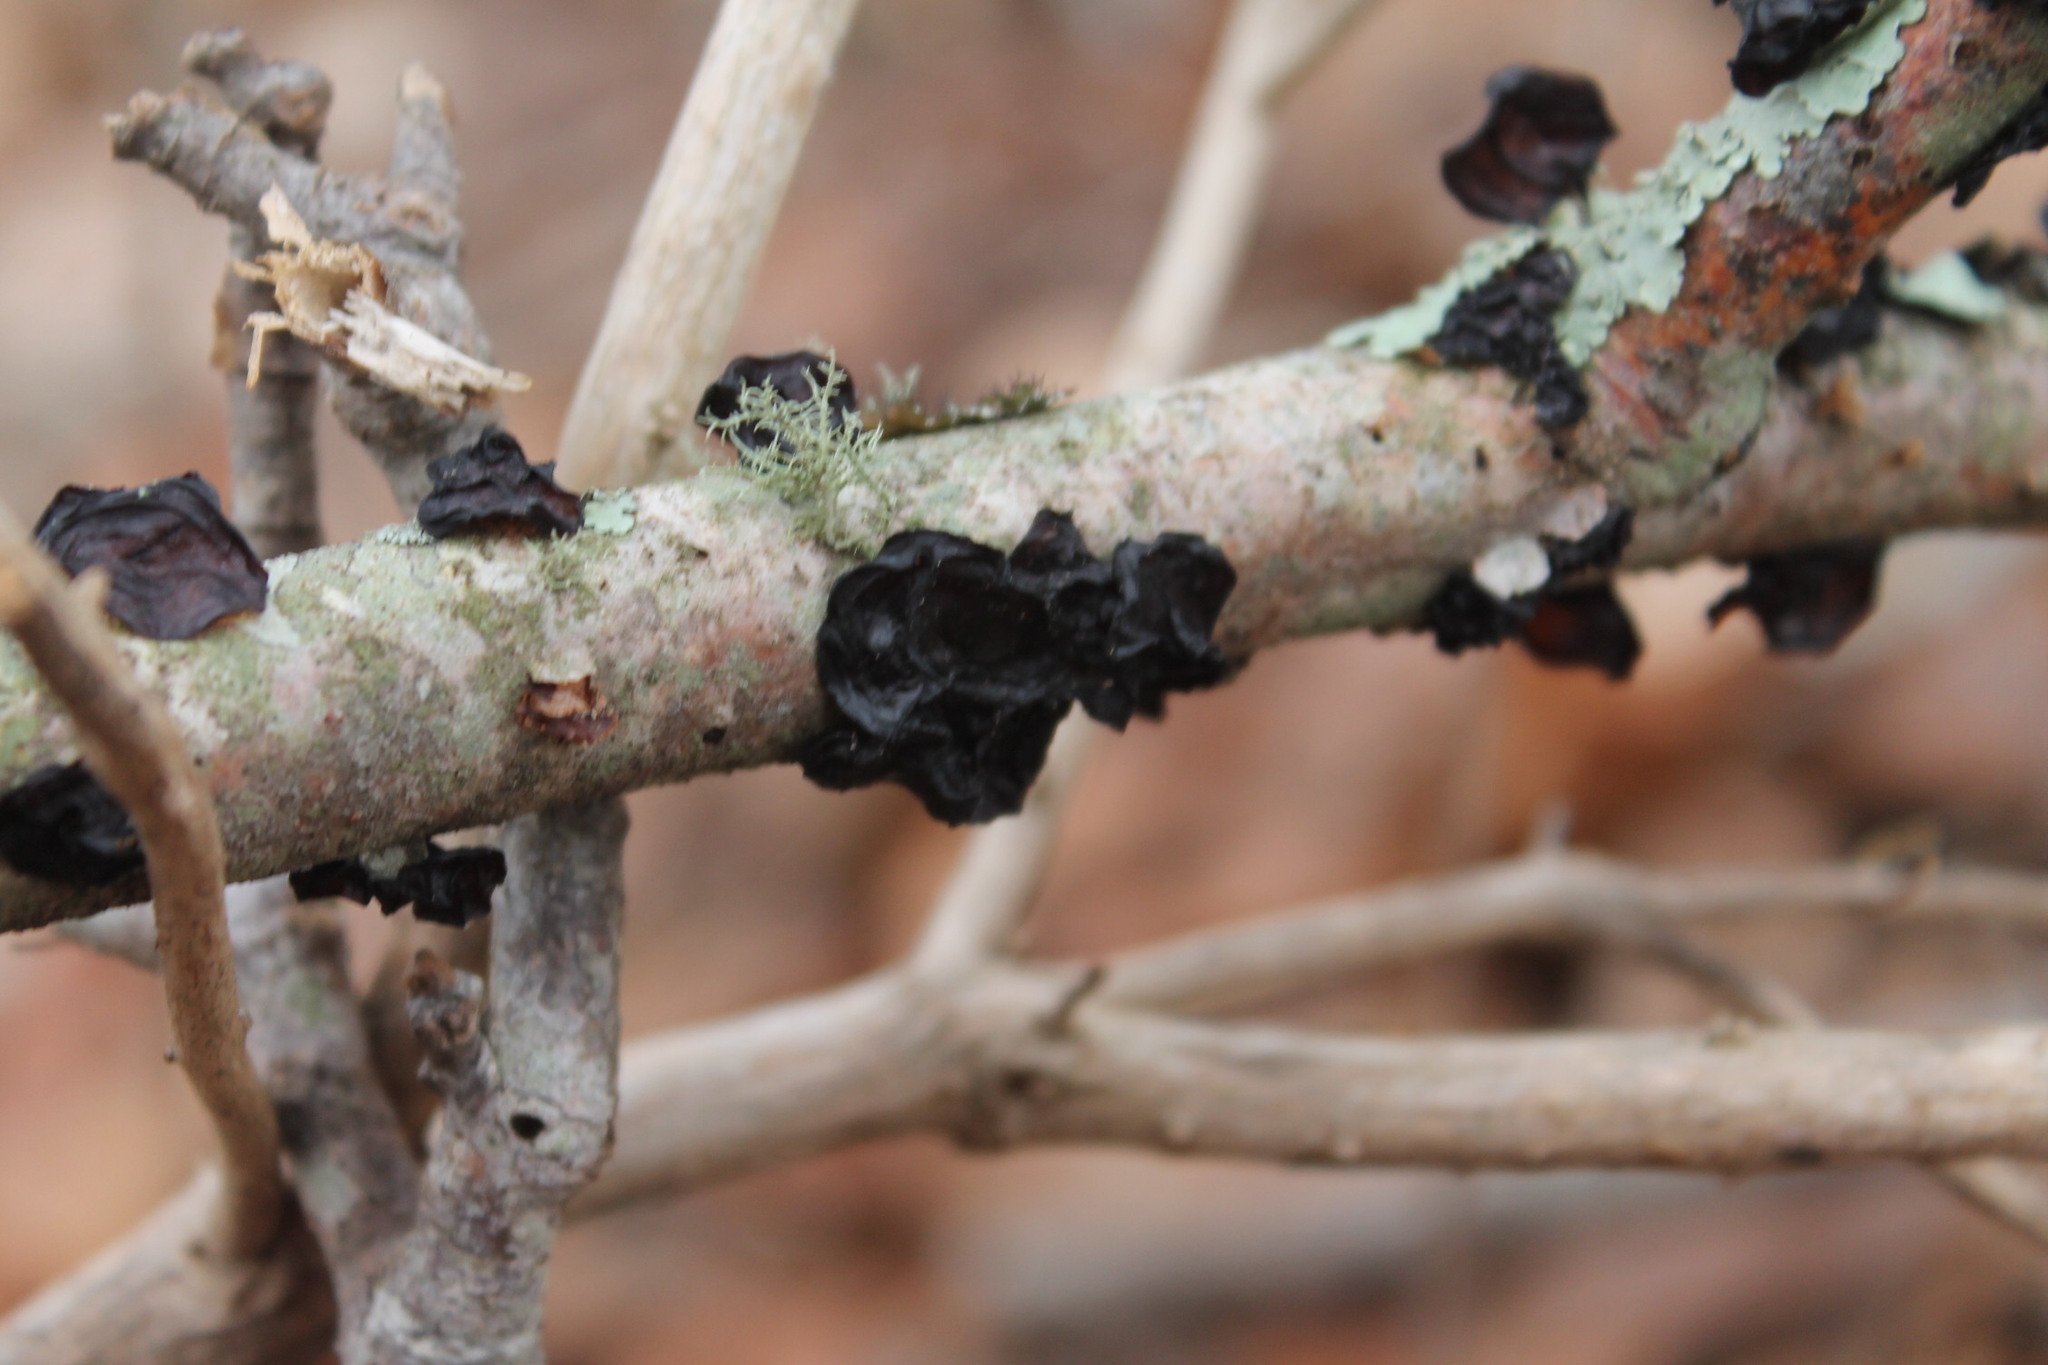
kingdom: Fungi
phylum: Basidiomycota
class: Agaricomycetes
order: Auriculariales
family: Auriculariaceae
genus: Exidia
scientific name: Exidia
